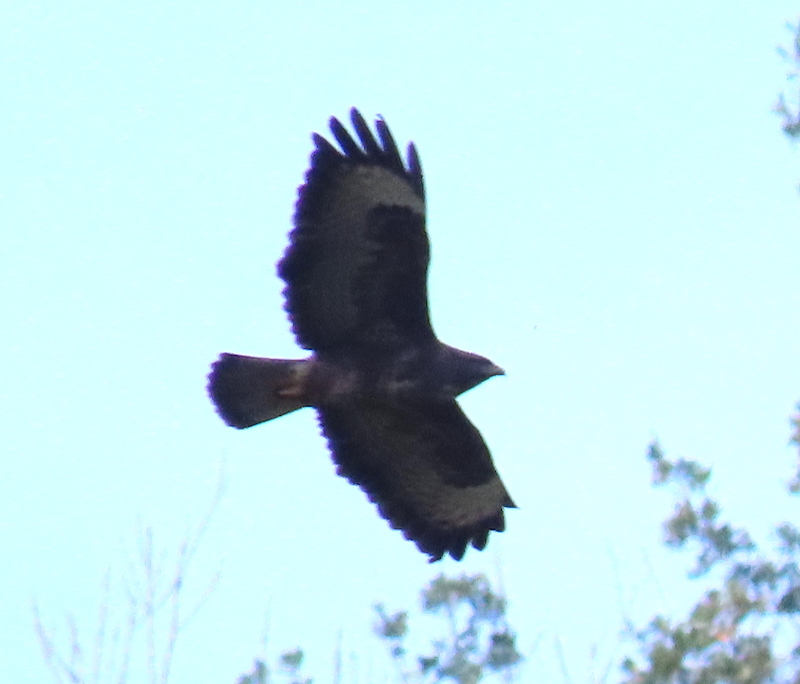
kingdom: Animalia
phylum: Chordata
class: Aves
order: Accipitriformes
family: Accipitridae
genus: Buteo
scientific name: Buteo buteo
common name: Common buzzard
